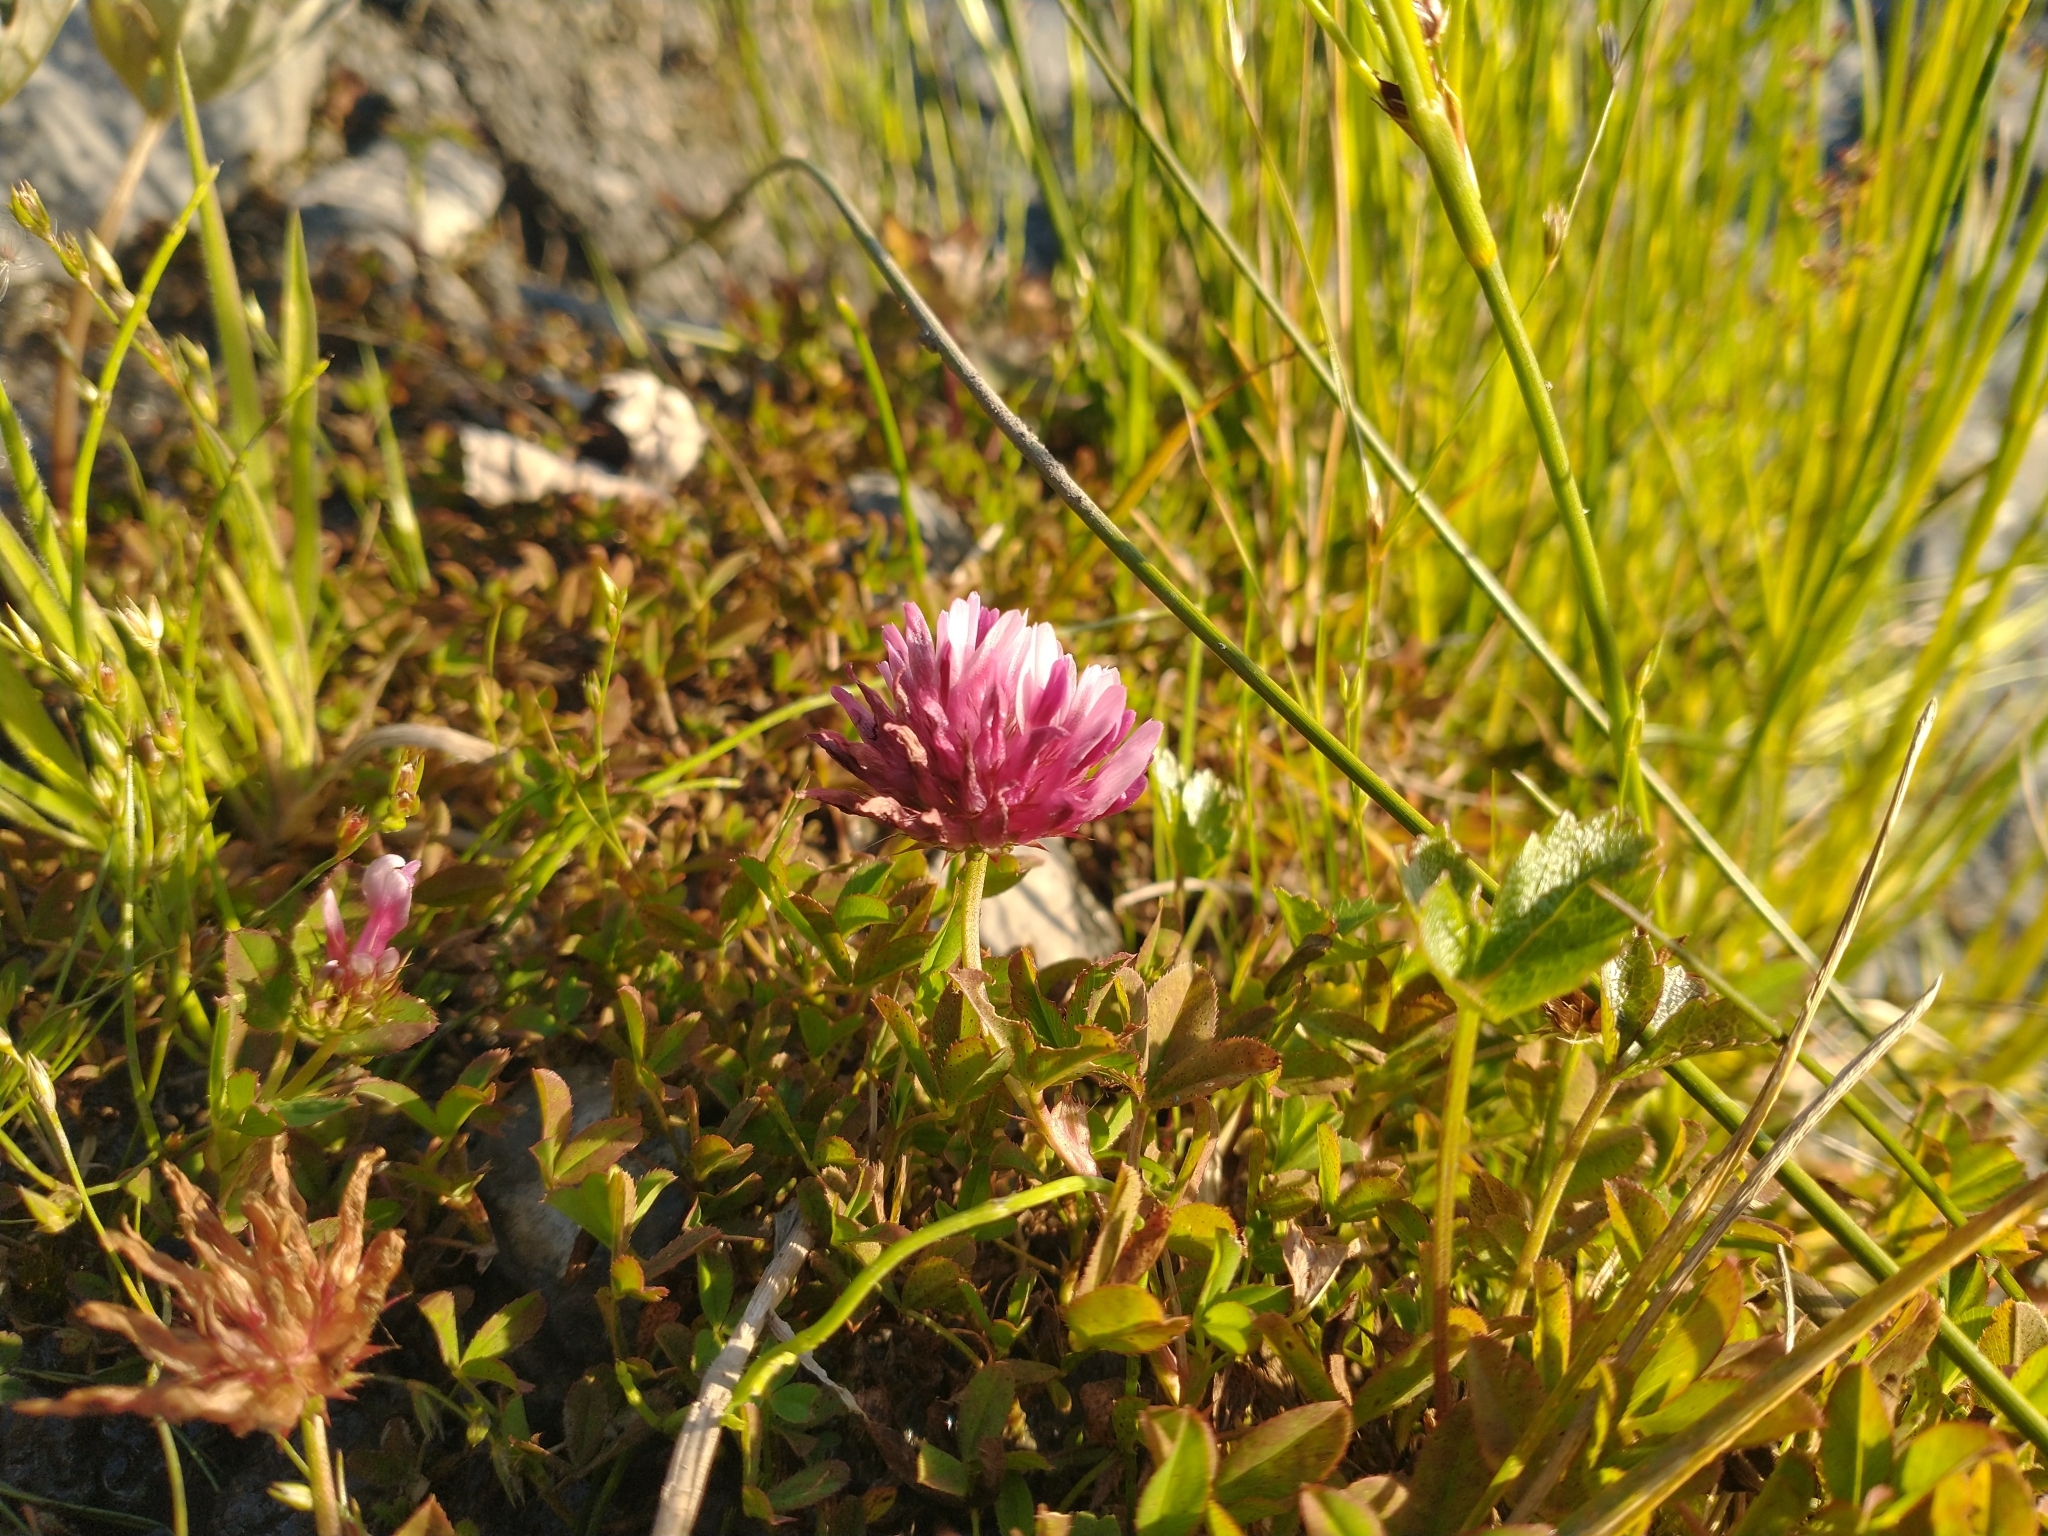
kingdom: Plantae
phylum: Tracheophyta
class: Magnoliopsida
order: Fabales
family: Fabaceae
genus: Trifolium
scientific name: Trifolium wormskioldii
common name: Springbank clover
